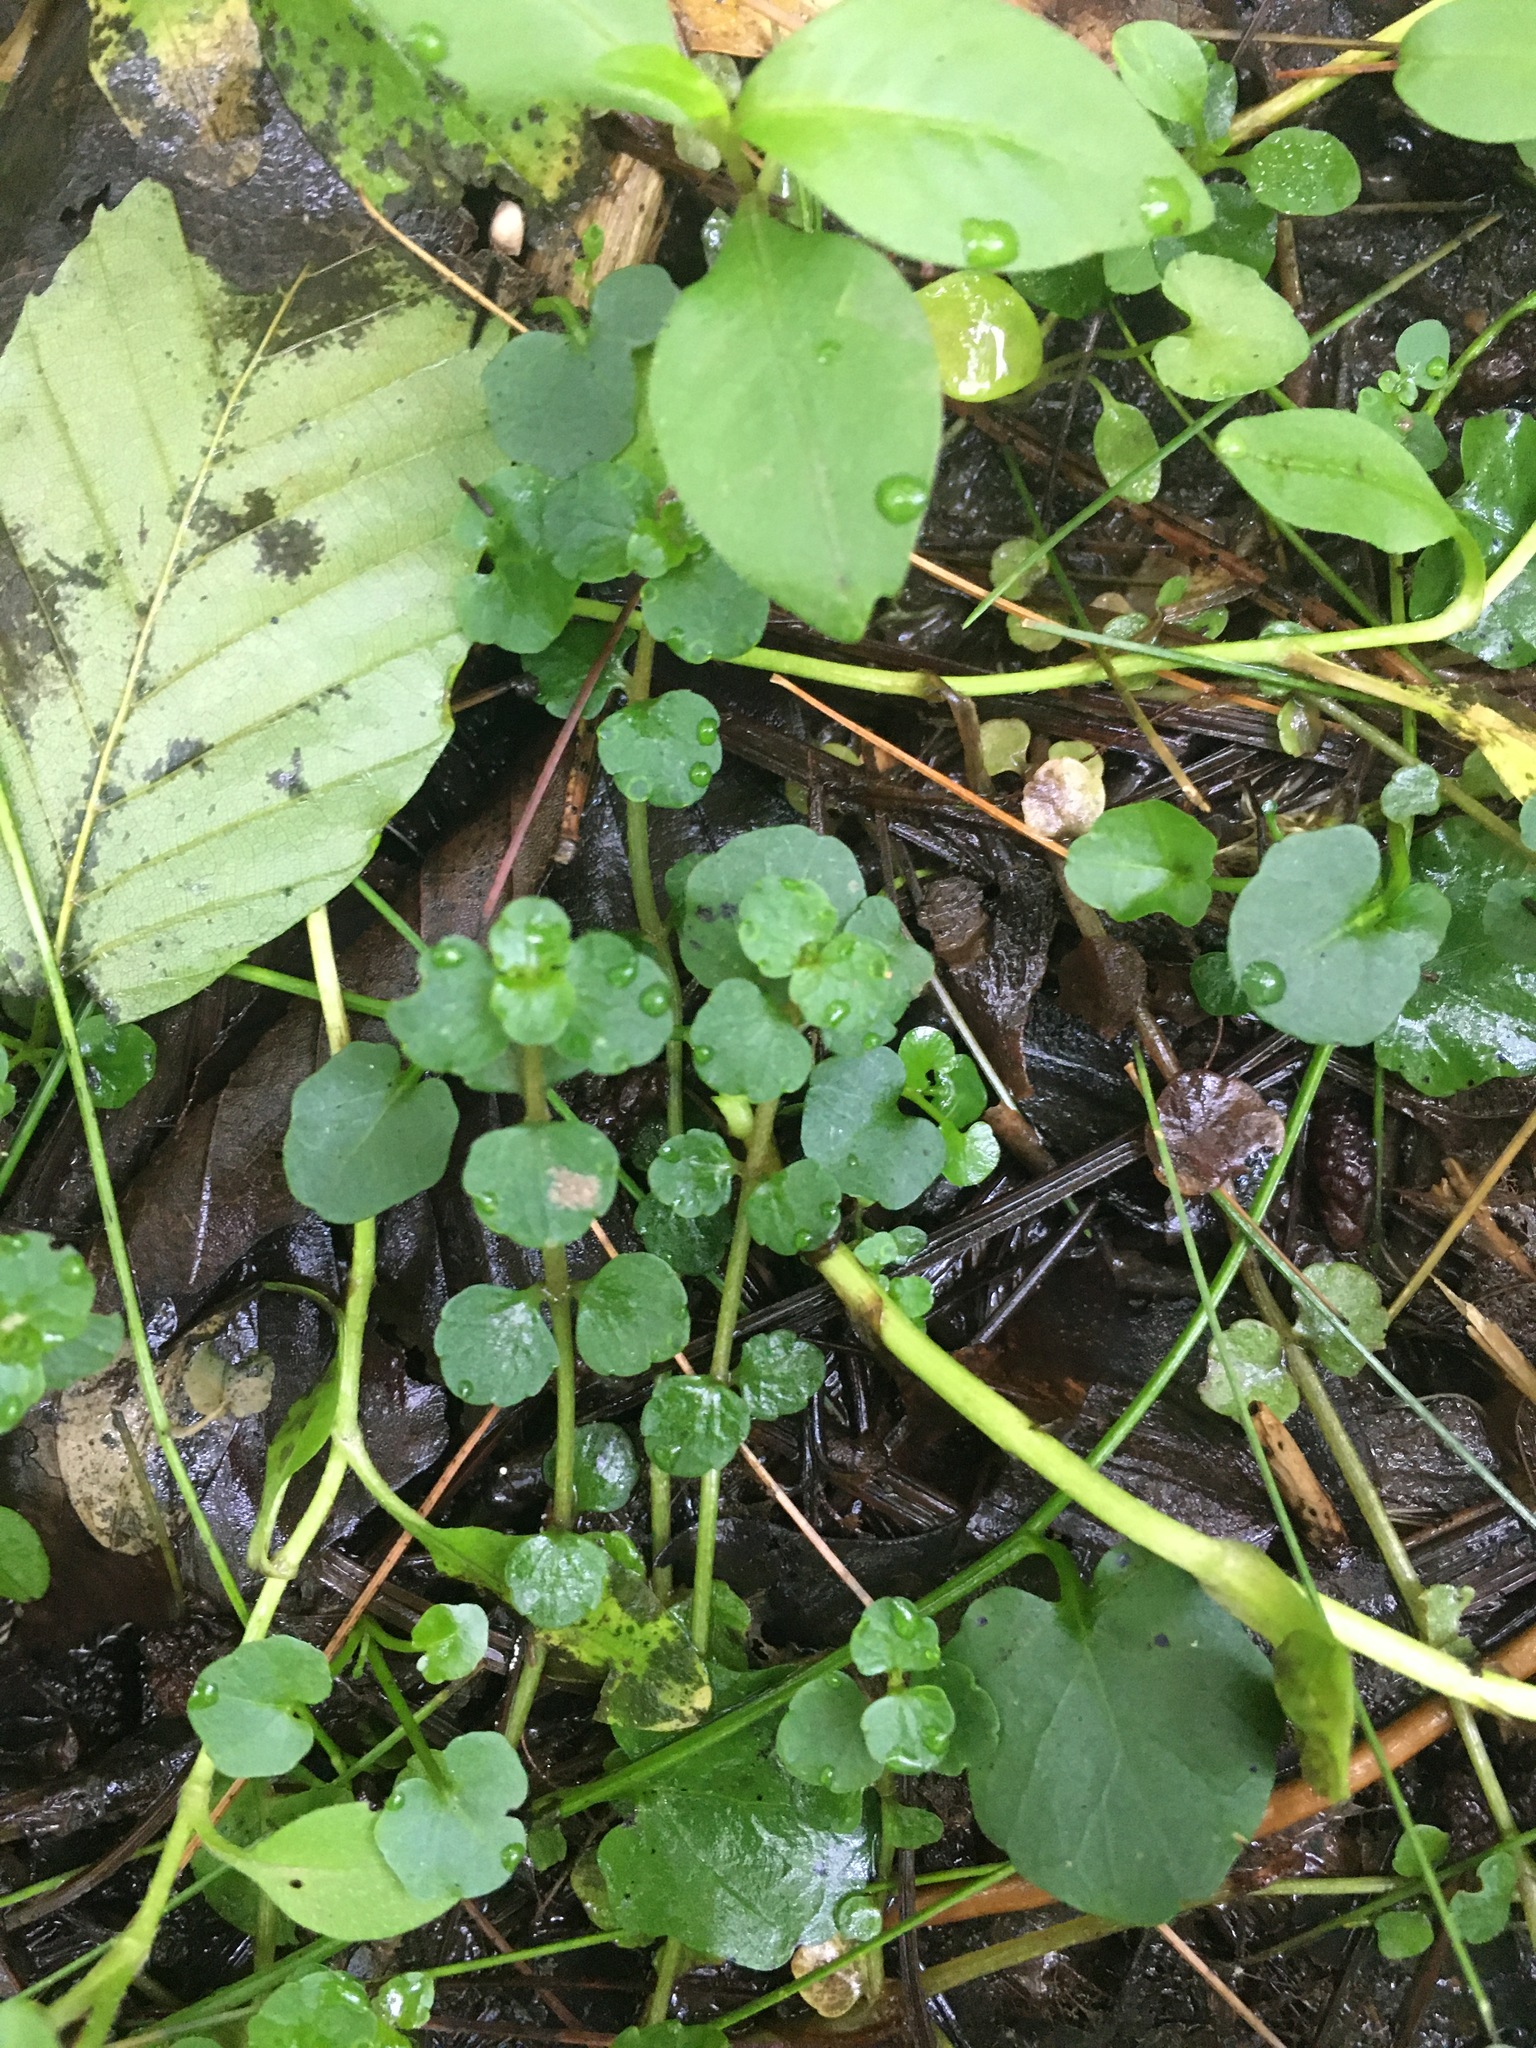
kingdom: Plantae
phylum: Tracheophyta
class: Magnoliopsida
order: Saxifragales
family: Saxifragaceae
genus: Chrysosplenium
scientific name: Chrysosplenium americanum
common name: American golden-saxifrage
